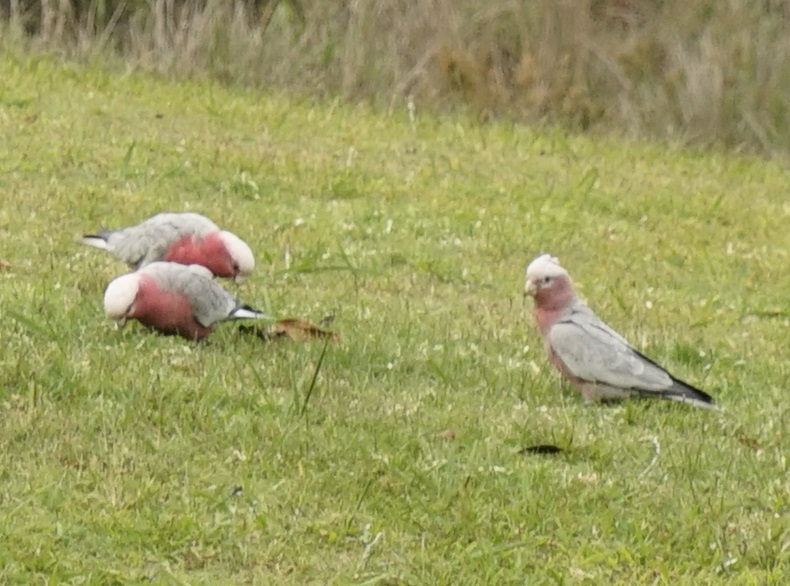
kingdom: Animalia
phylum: Chordata
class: Aves
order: Psittaciformes
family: Psittacidae
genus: Eolophus
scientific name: Eolophus roseicapilla
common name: Galah
